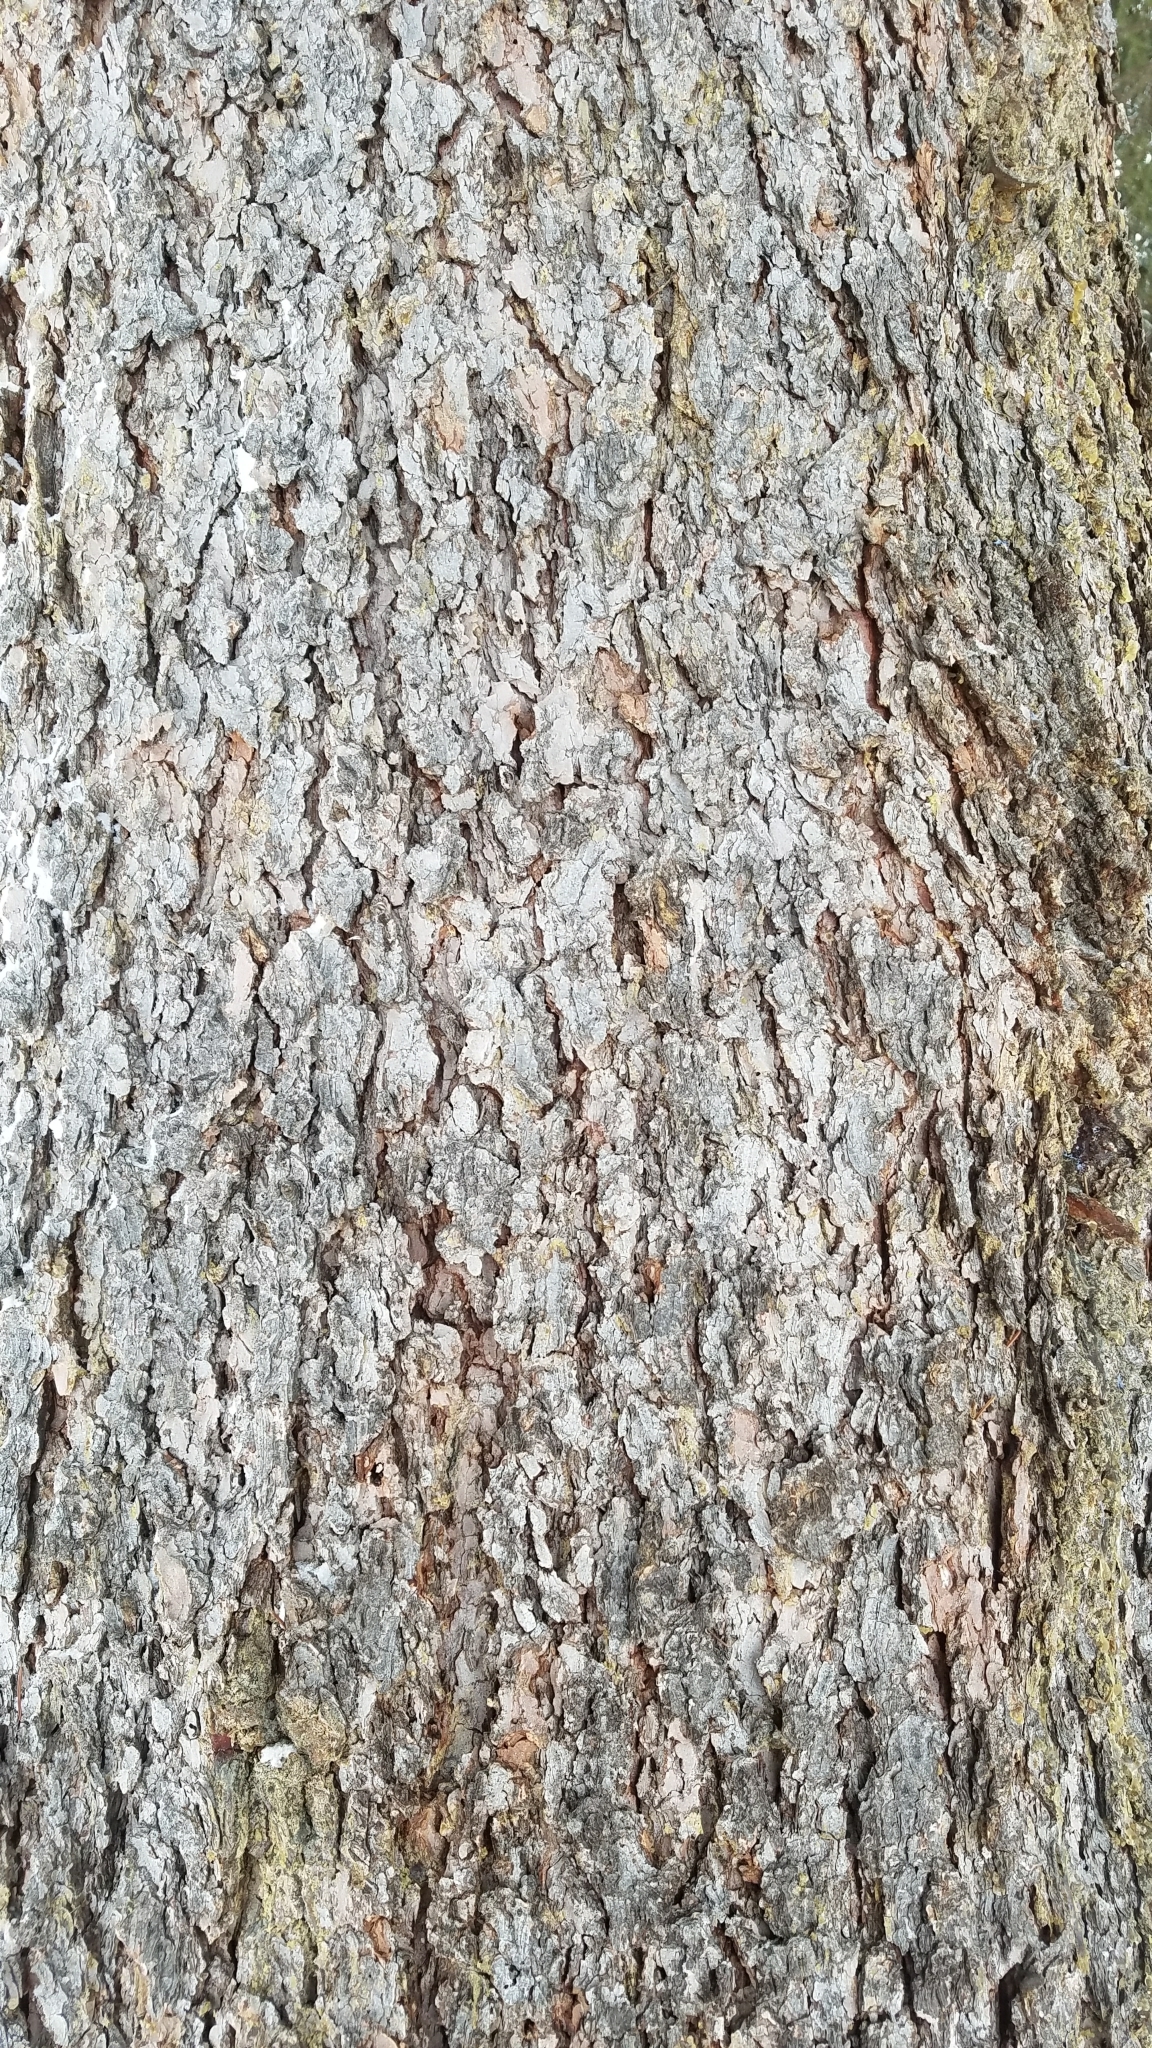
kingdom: Plantae
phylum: Tracheophyta
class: Pinopsida
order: Pinales
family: Pinaceae
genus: Picea
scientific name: Picea engelmannii
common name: Engelmann spruce
